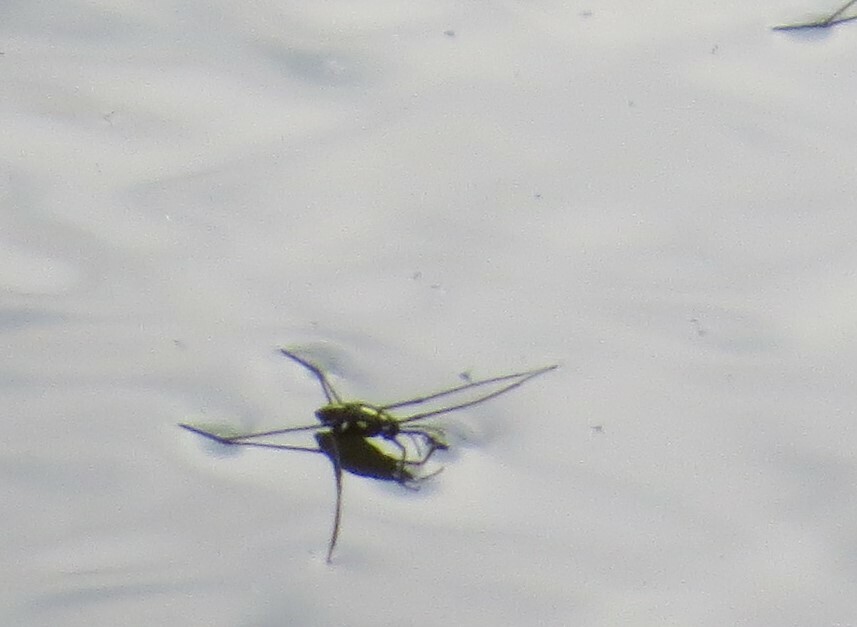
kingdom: Animalia
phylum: Arthropoda
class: Insecta
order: Hemiptera
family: Gerridae
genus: Metrobates
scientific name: Metrobates hesperius
